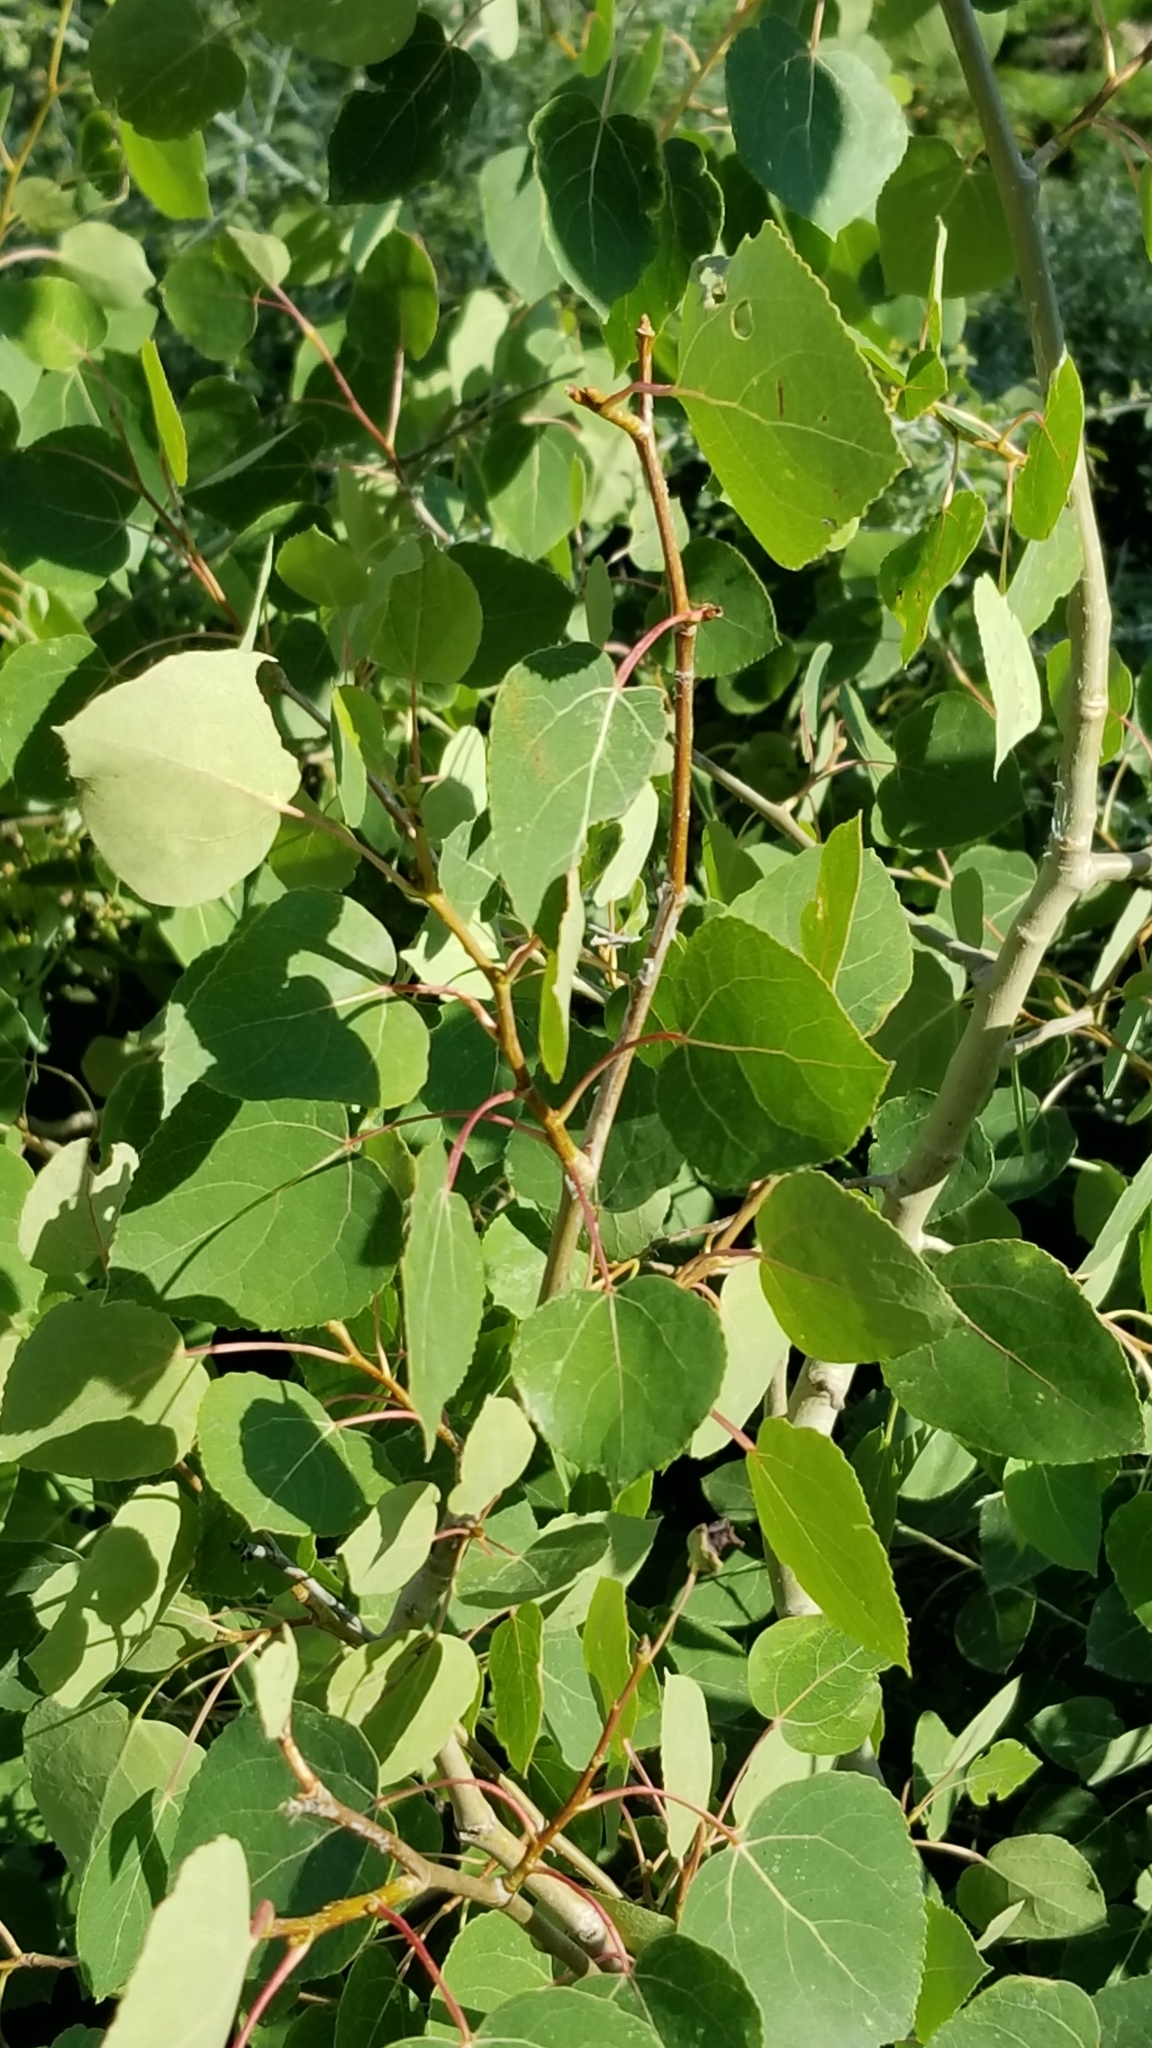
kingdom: Plantae
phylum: Tracheophyta
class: Magnoliopsida
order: Malpighiales
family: Salicaceae
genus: Populus
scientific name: Populus tremuloides
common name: Quaking aspen
